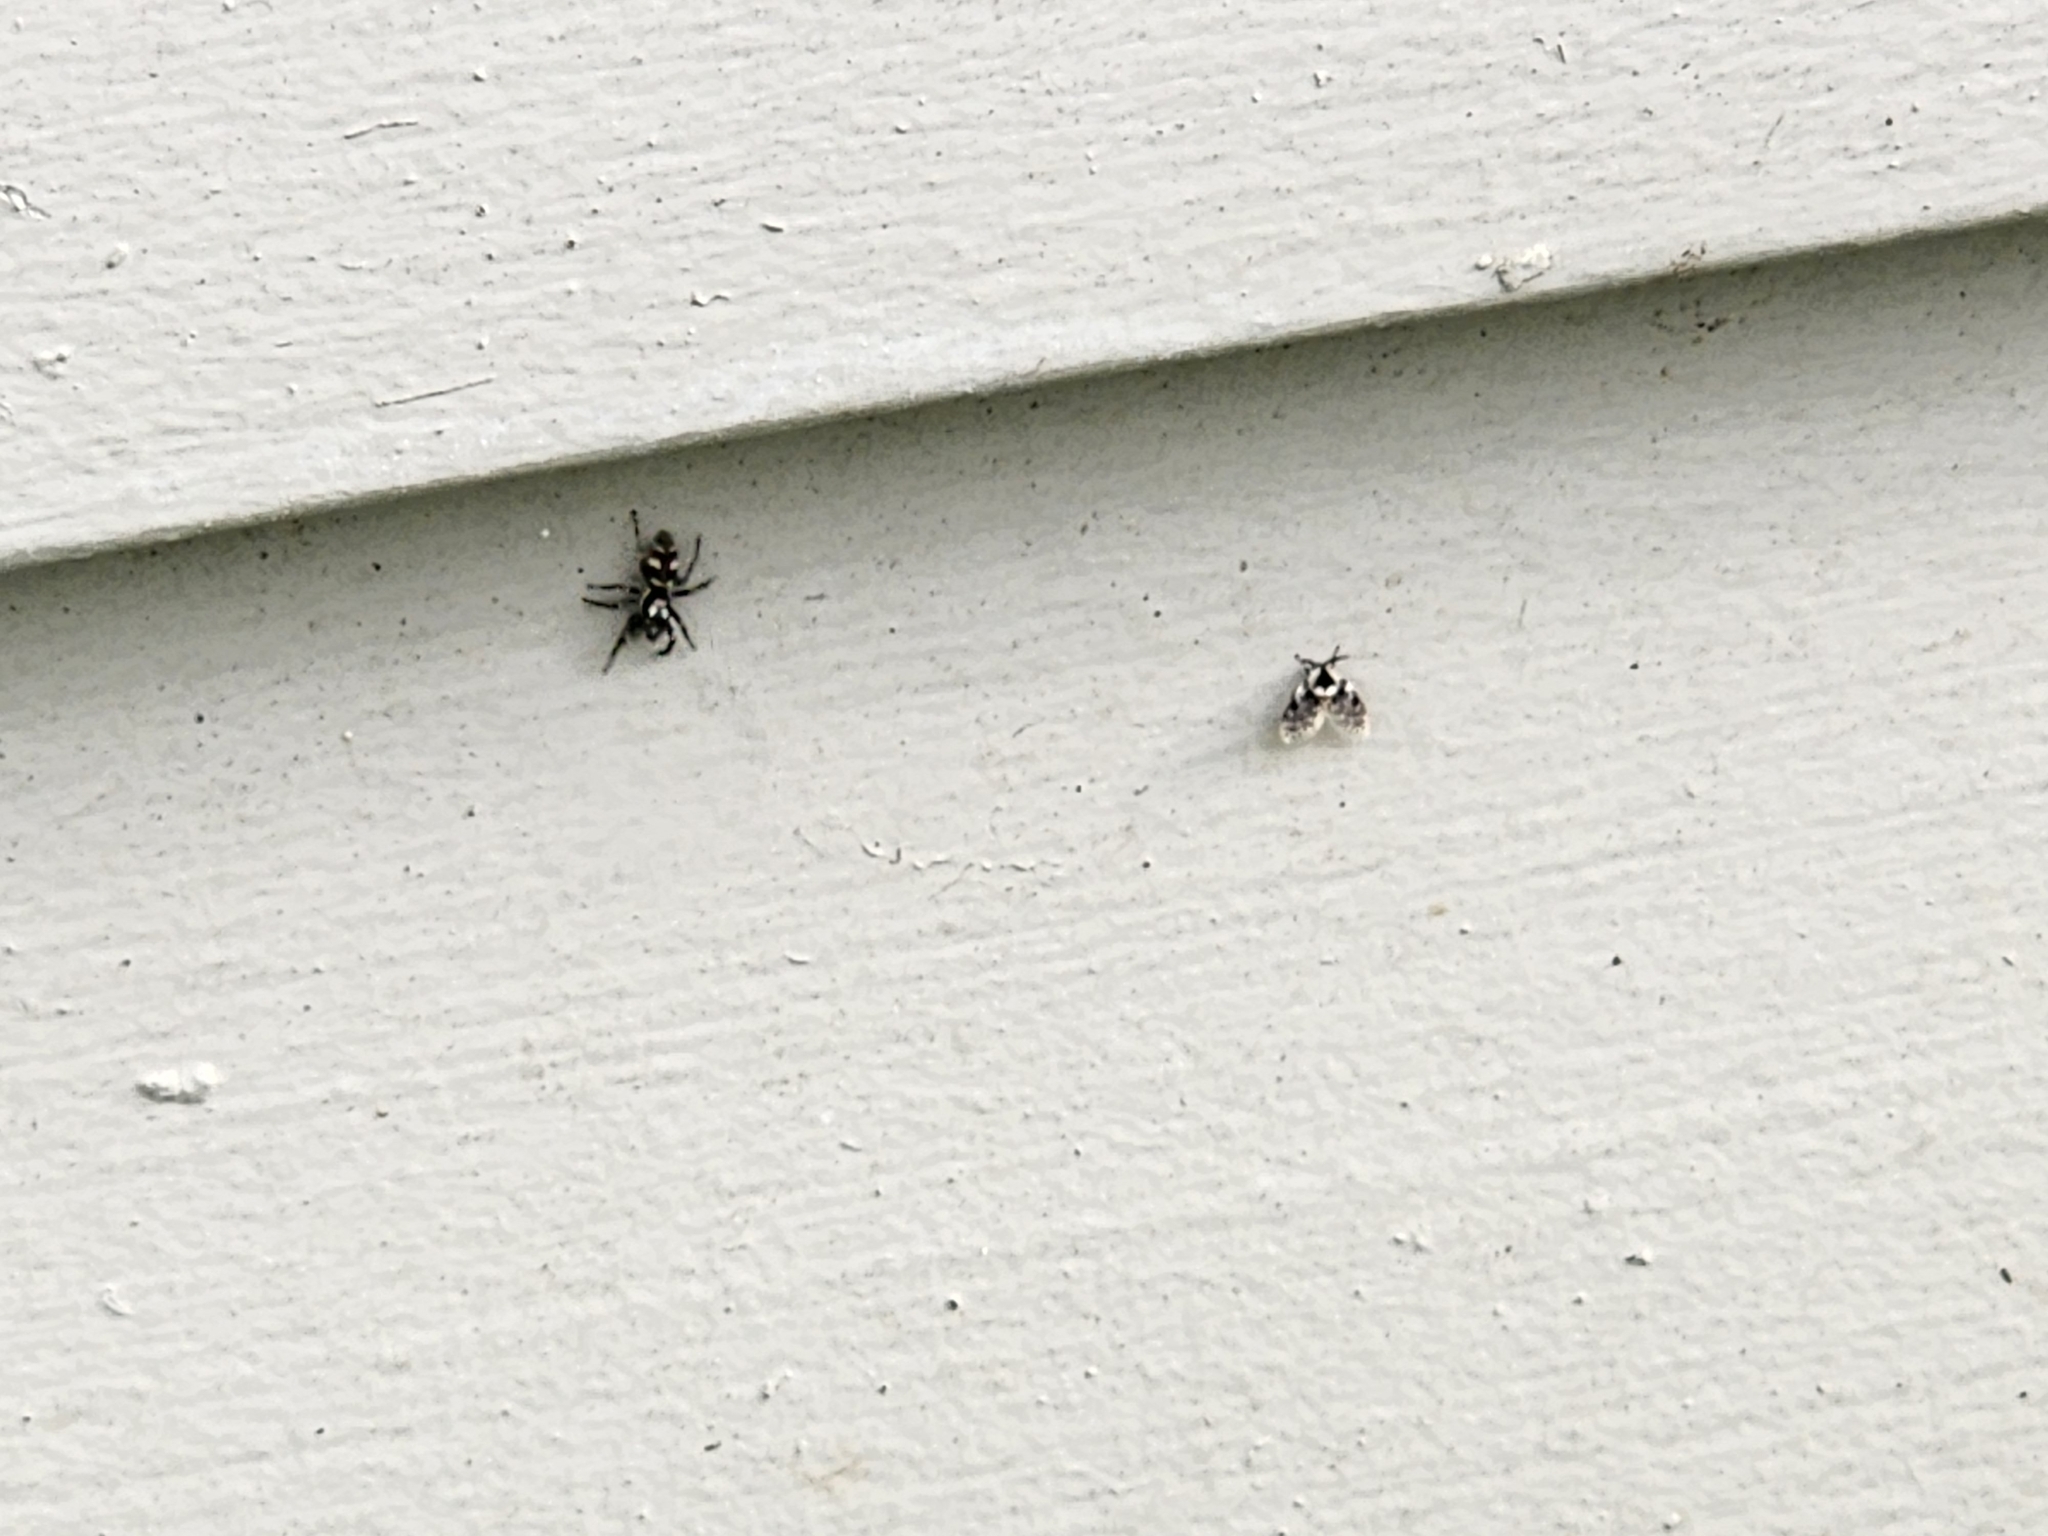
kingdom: Animalia
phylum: Arthropoda
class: Insecta
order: Diptera
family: Psychodidae
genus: Lepiseodina
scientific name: Lepiseodina
